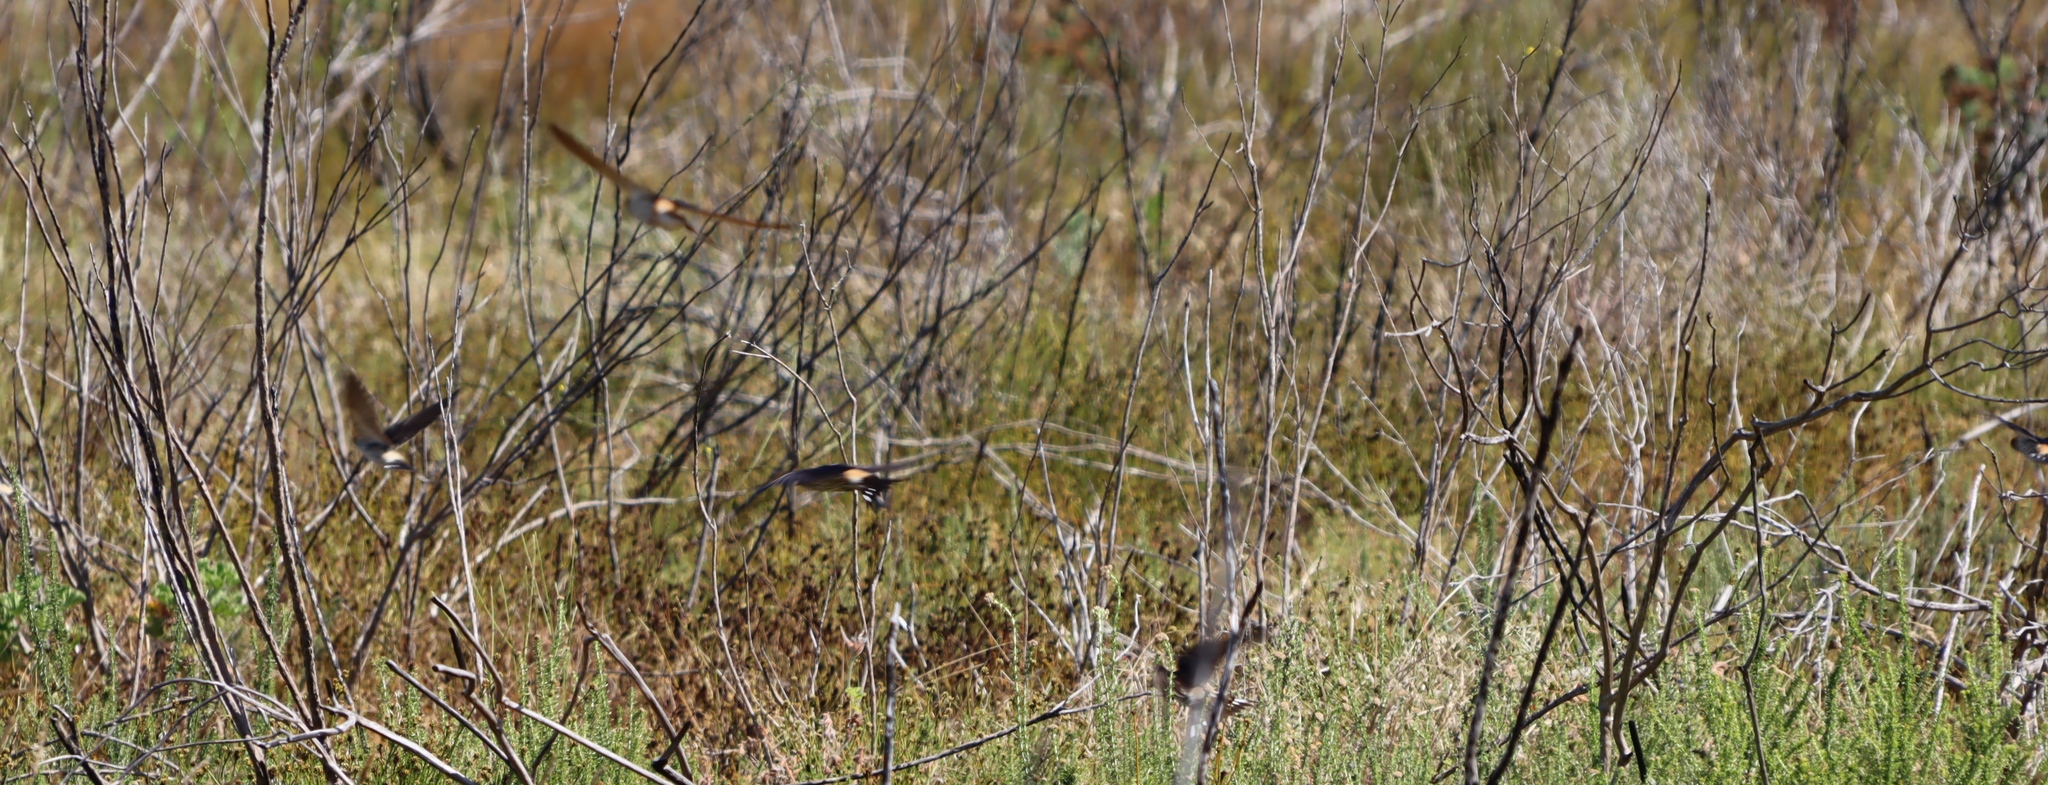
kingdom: Animalia
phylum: Chordata
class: Aves
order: Passeriformes
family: Hirundinidae
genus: Cecropis
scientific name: Cecropis cucullata
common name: Greater striped-swallow
